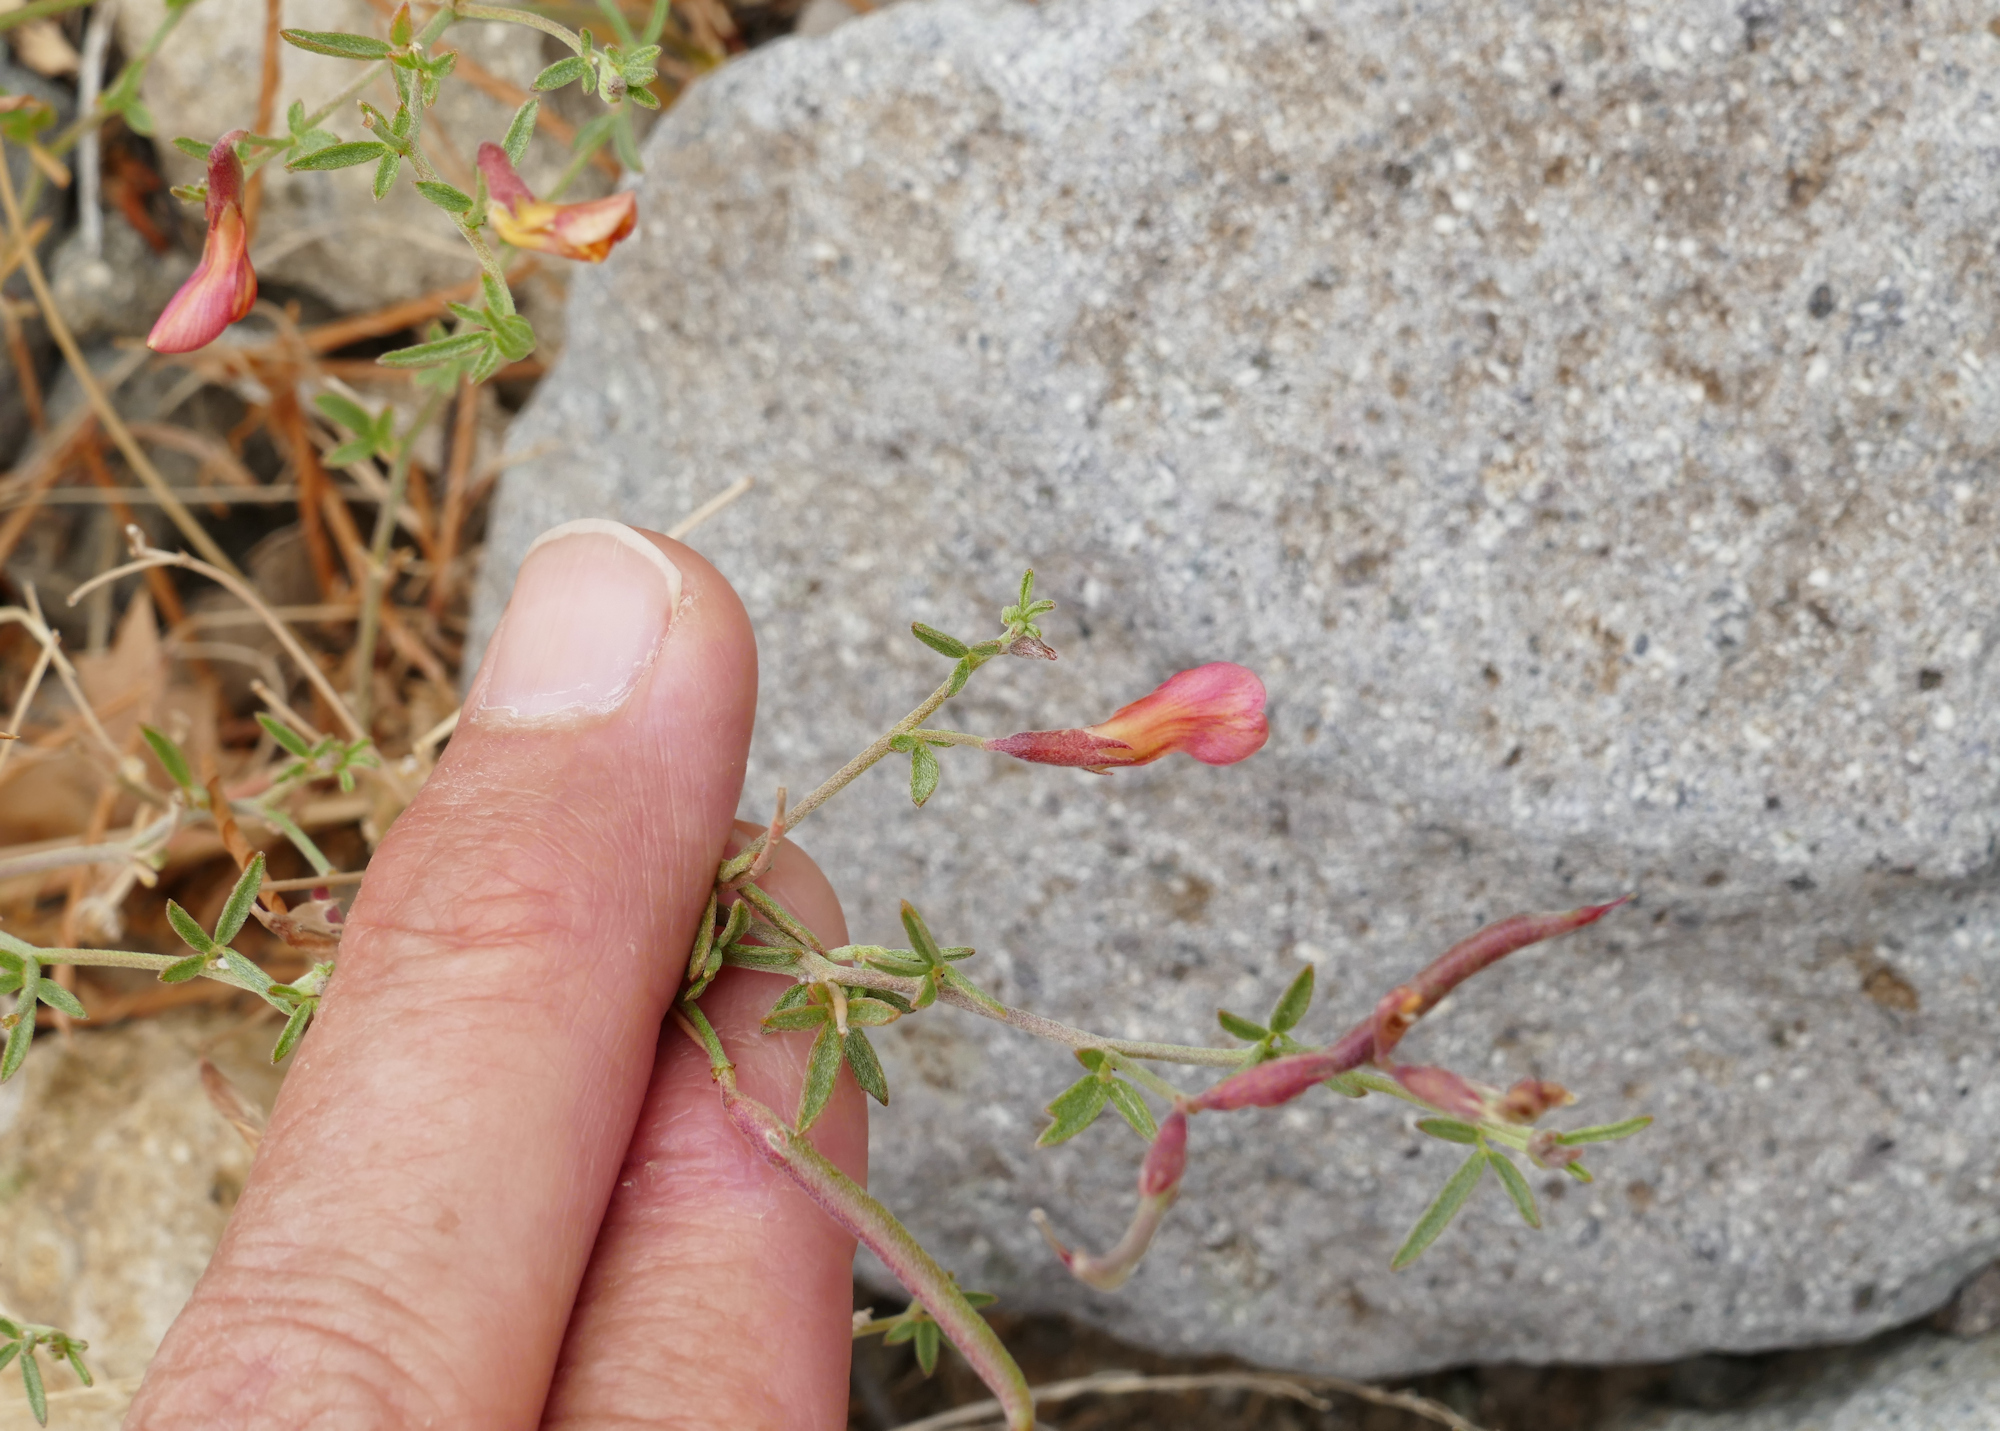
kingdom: Plantae
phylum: Tracheophyta
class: Magnoliopsida
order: Fabales
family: Fabaceae
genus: Acmispon
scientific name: Acmispon oroboides
